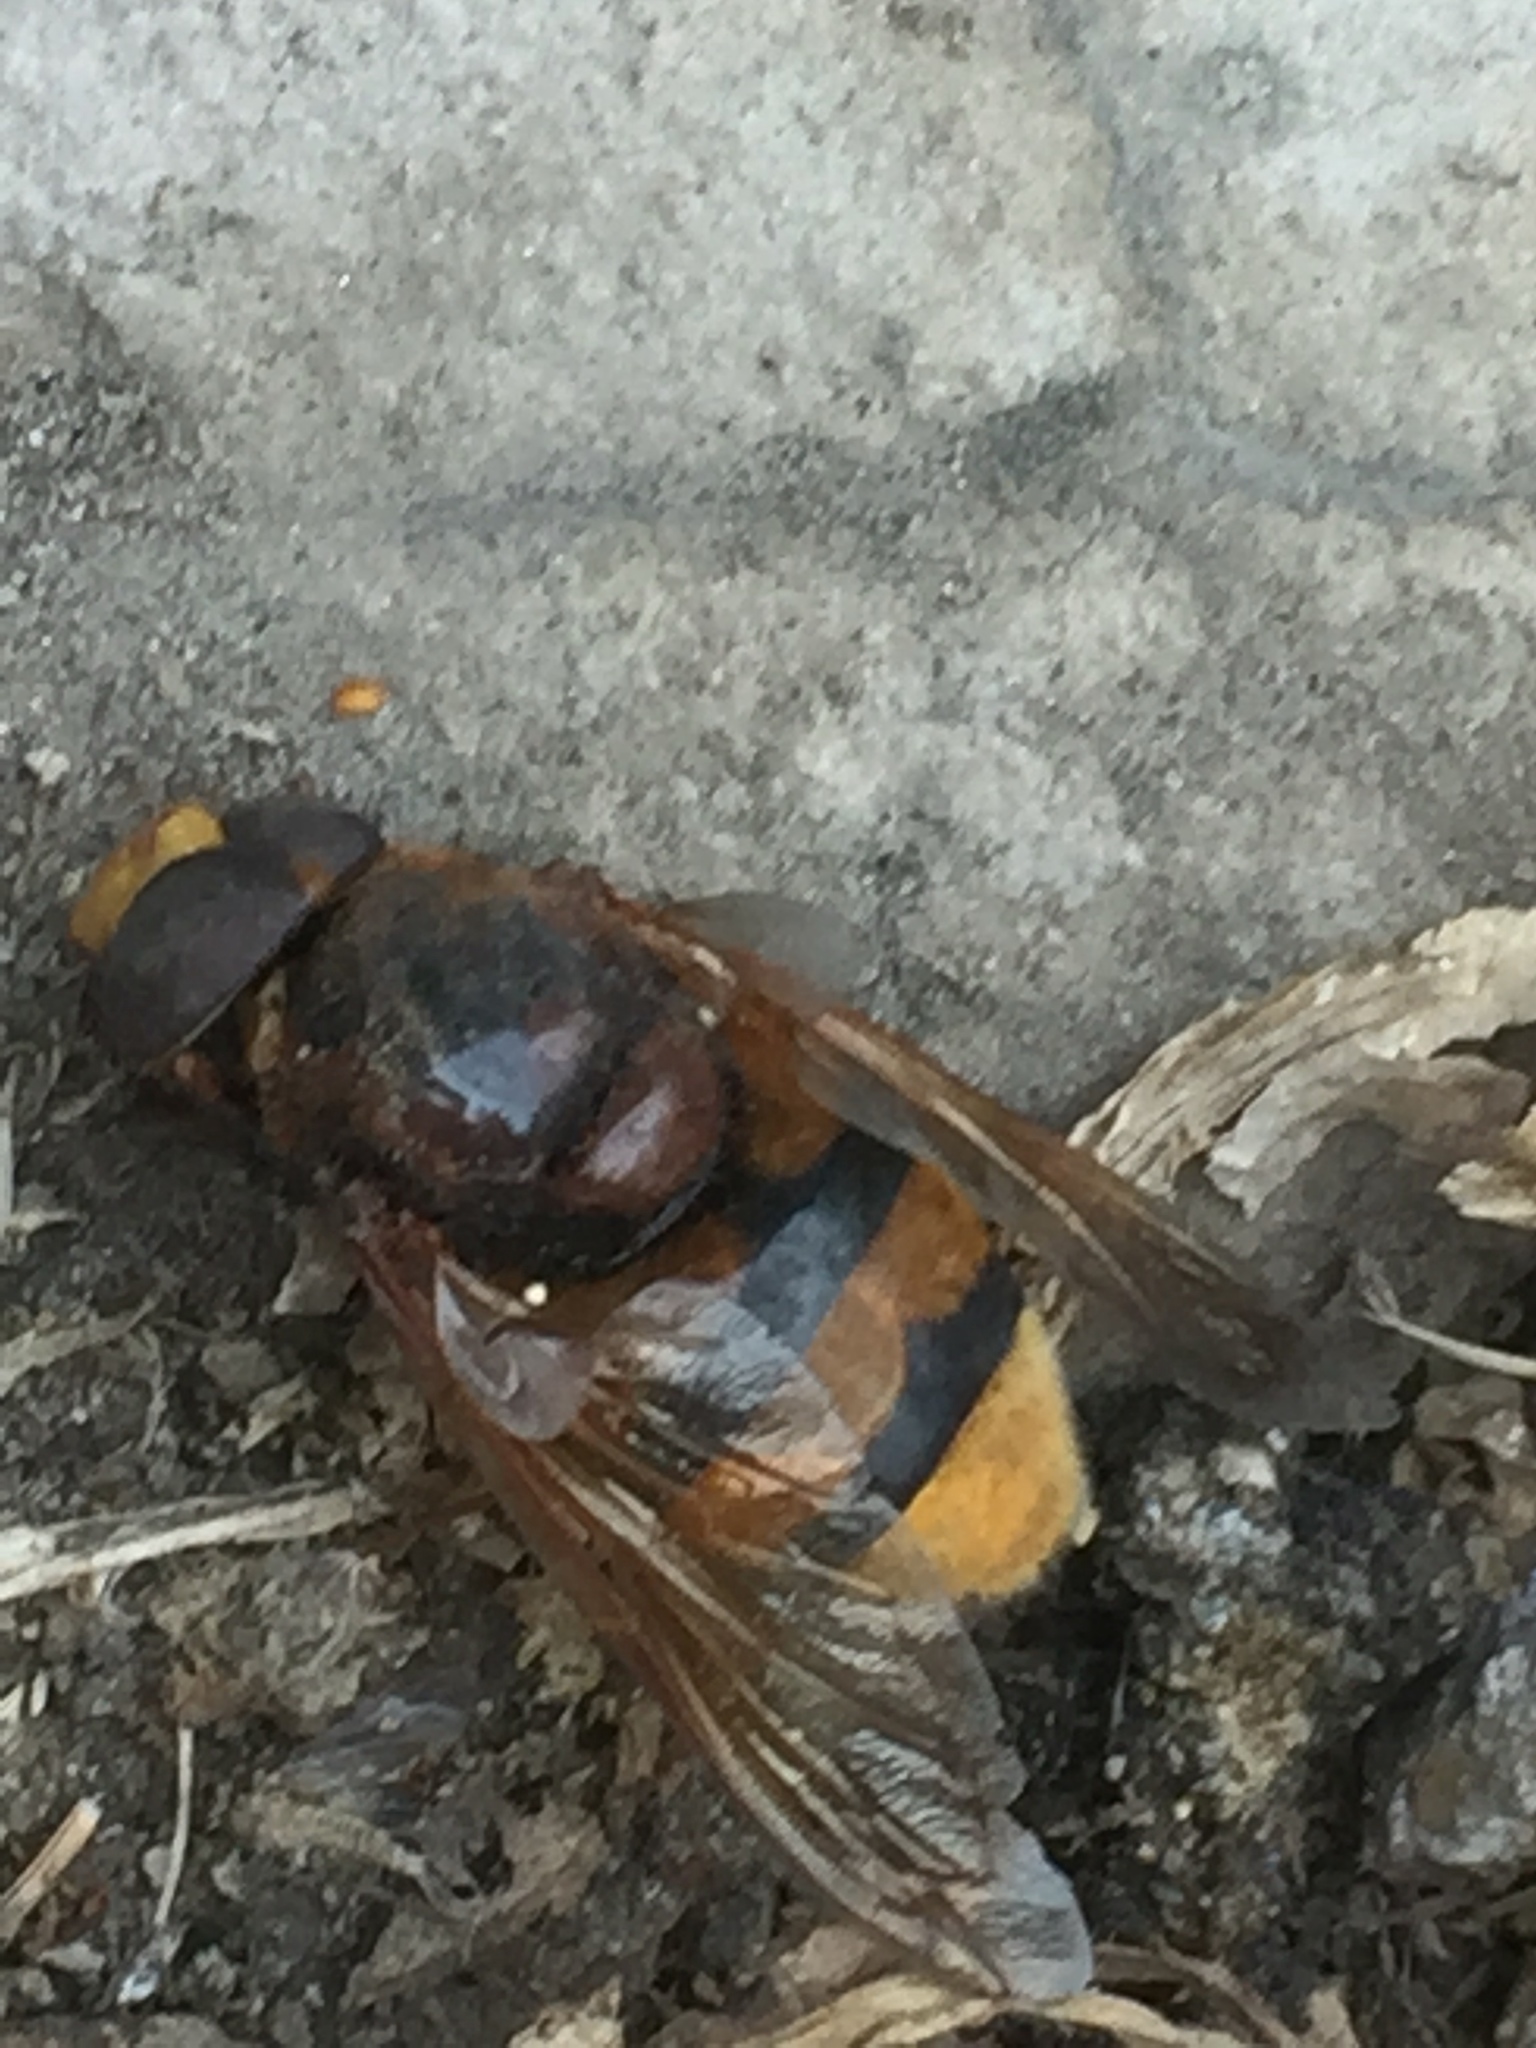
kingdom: Animalia
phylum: Arthropoda
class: Insecta
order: Diptera
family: Syrphidae
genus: Volucella
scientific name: Volucella zonaria
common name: Hornet hoverfly
